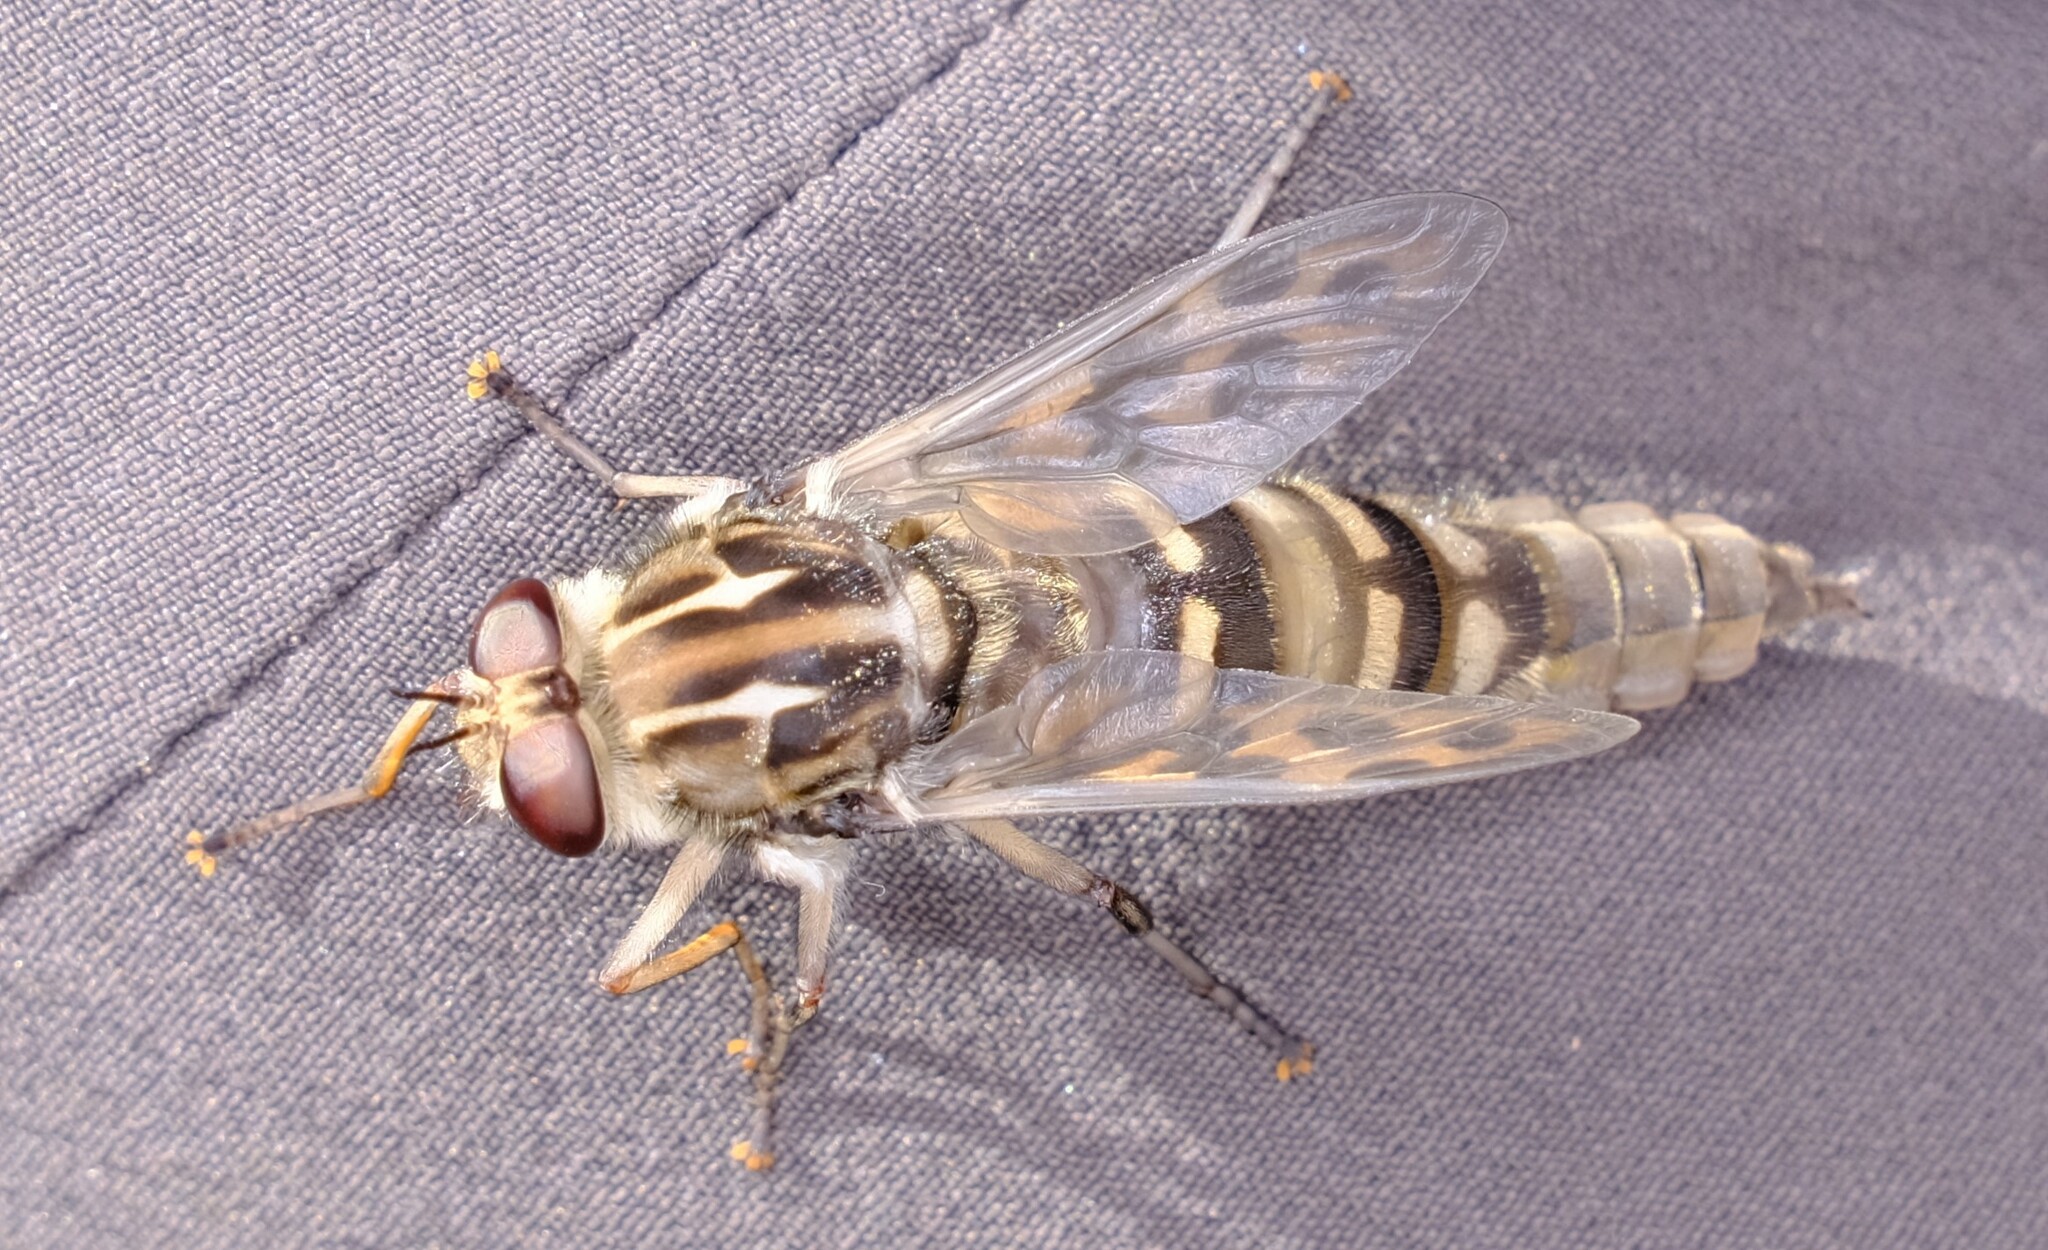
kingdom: Animalia
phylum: Arthropoda
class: Insecta
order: Diptera
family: Rhagionidae
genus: Pelecorhynchus
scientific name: Pelecorhynchus albolineatus
